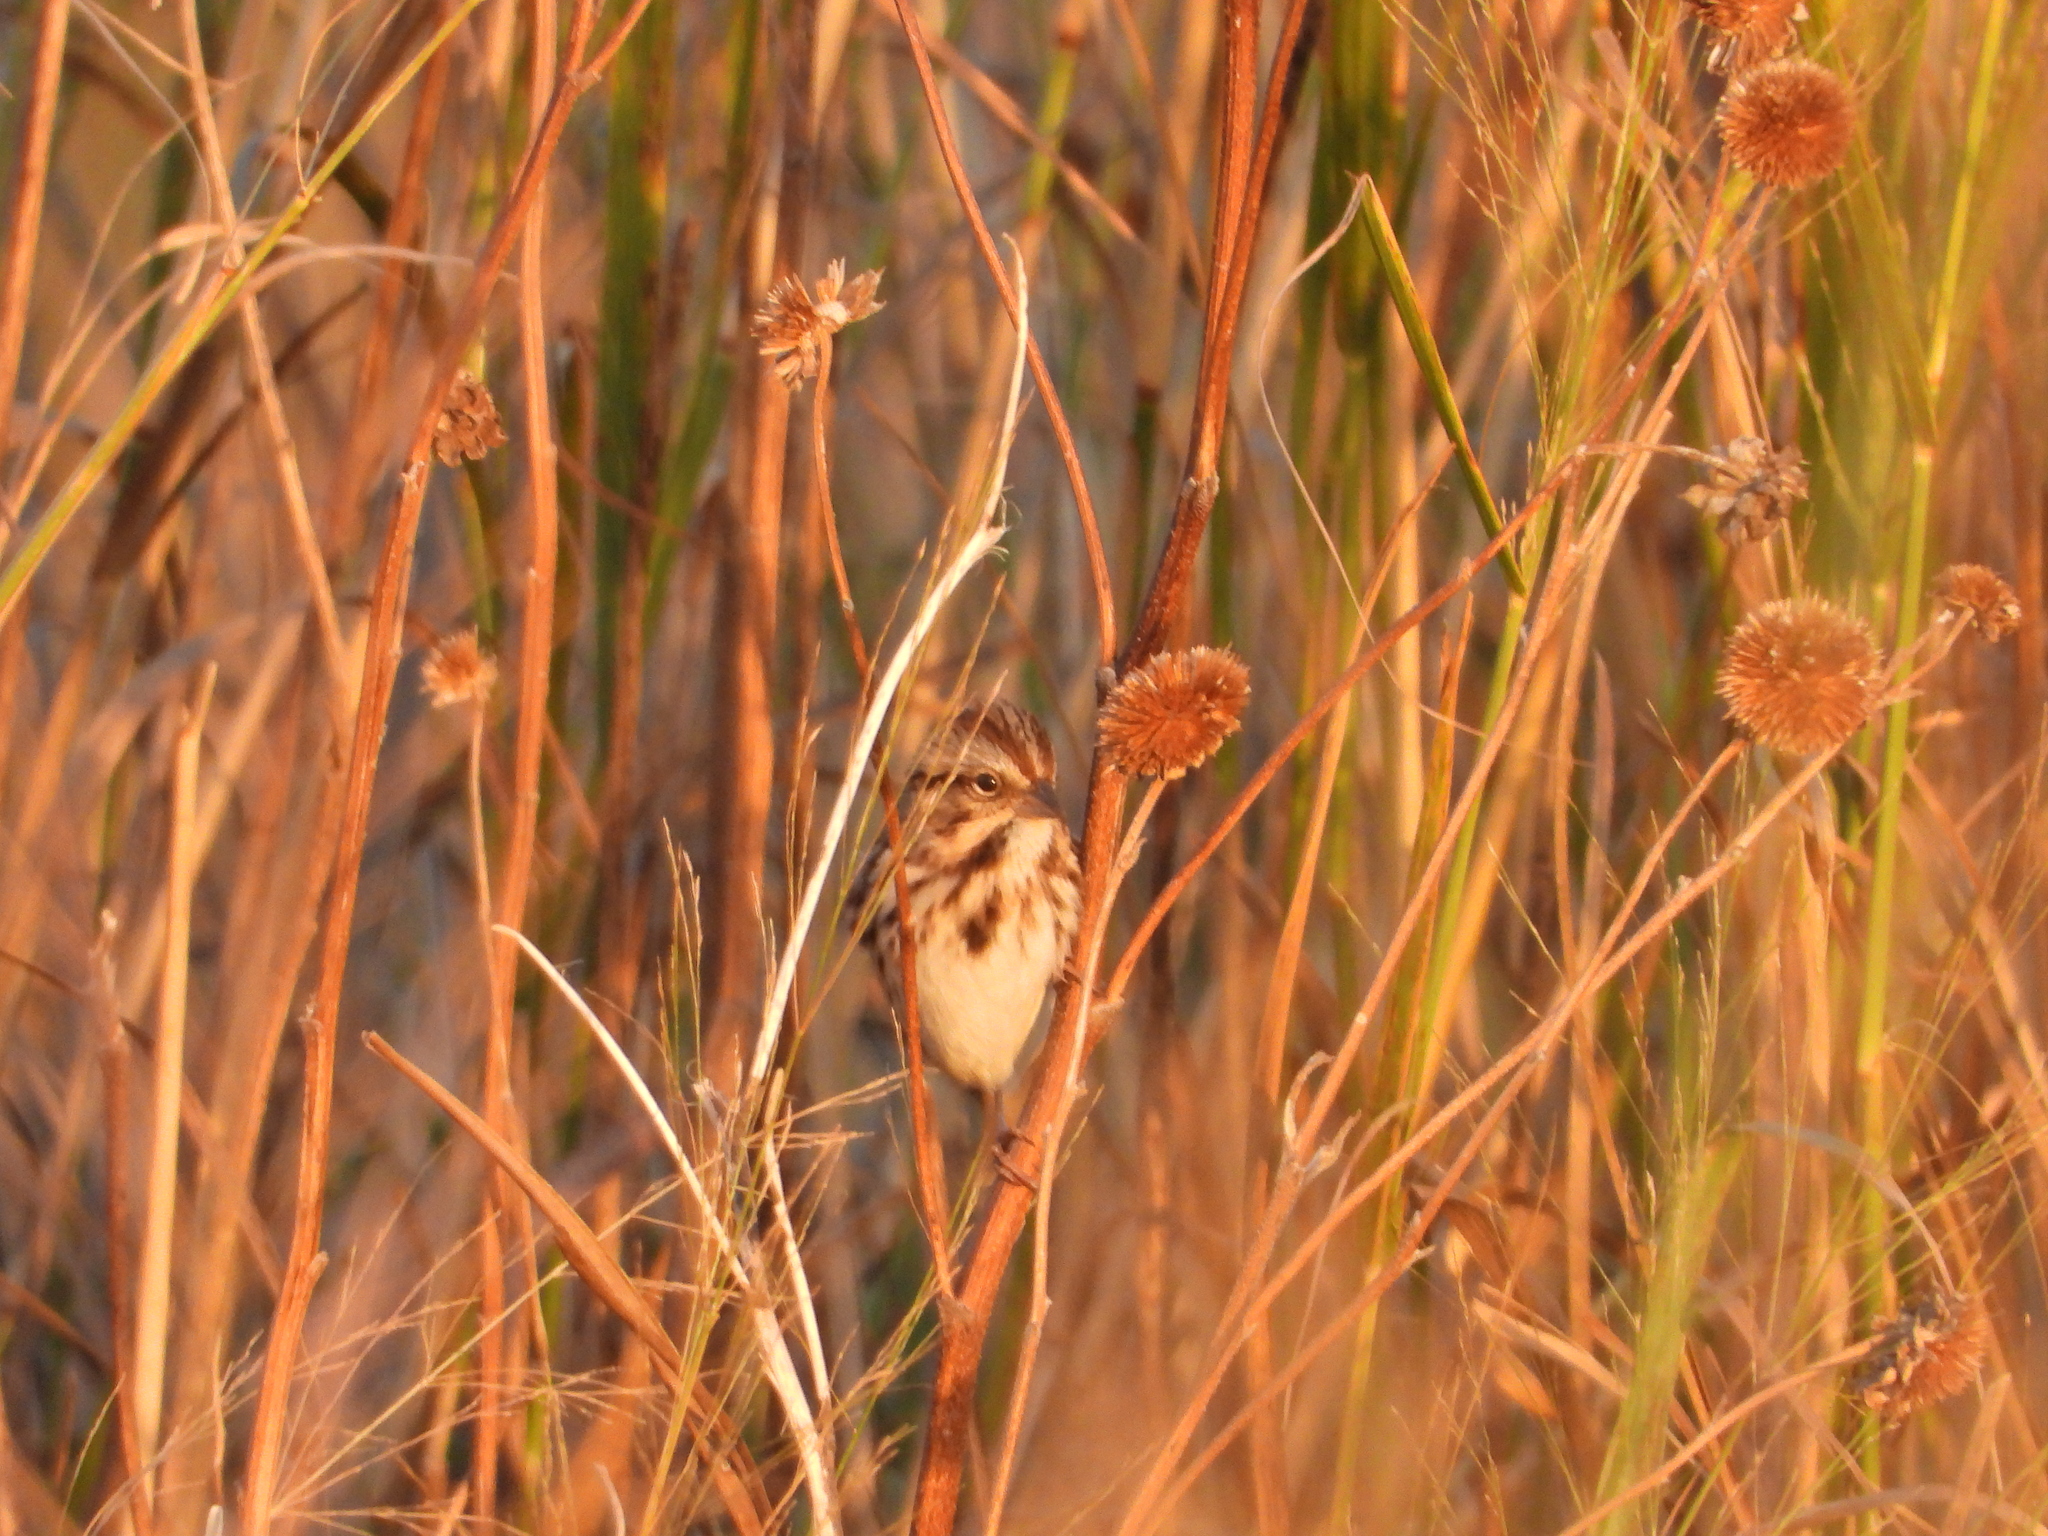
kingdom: Animalia
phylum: Chordata
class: Aves
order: Passeriformes
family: Passerellidae
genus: Melospiza
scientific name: Melospiza melodia
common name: Song sparrow
